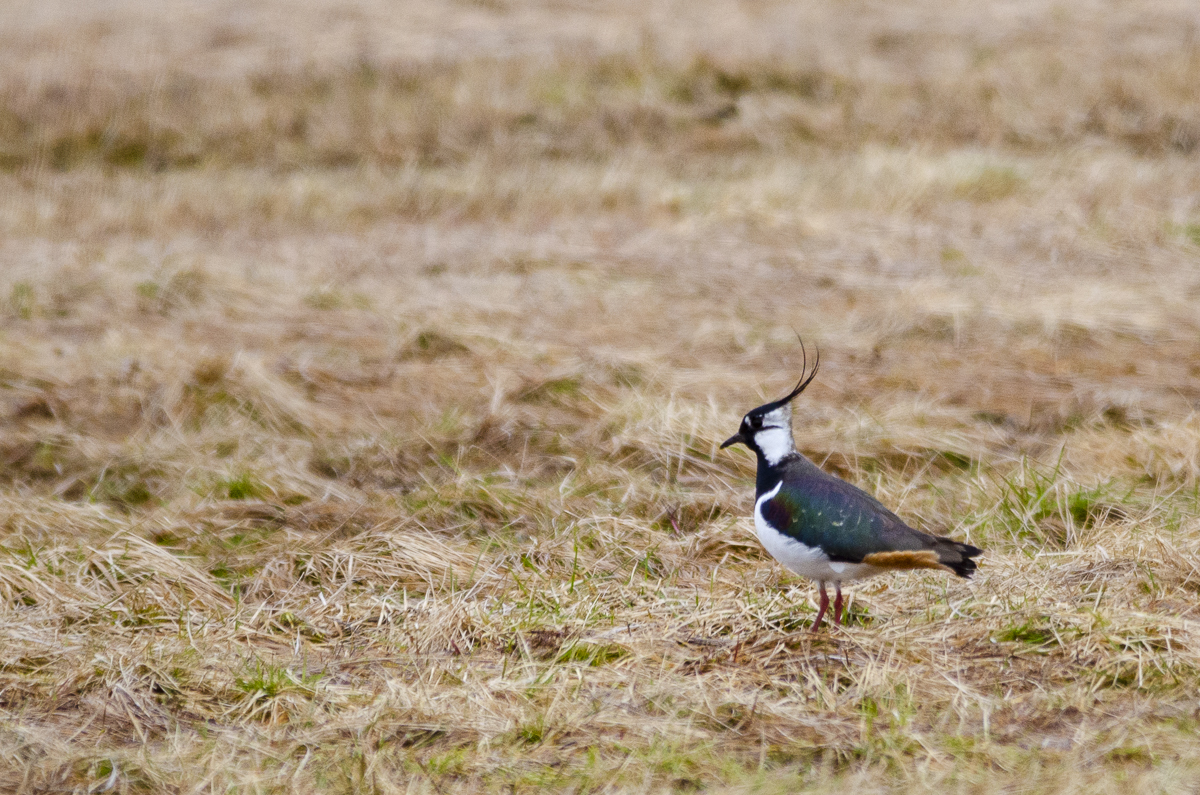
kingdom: Animalia
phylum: Chordata
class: Aves
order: Charadriiformes
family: Charadriidae
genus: Vanellus
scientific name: Vanellus vanellus
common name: Northern lapwing
